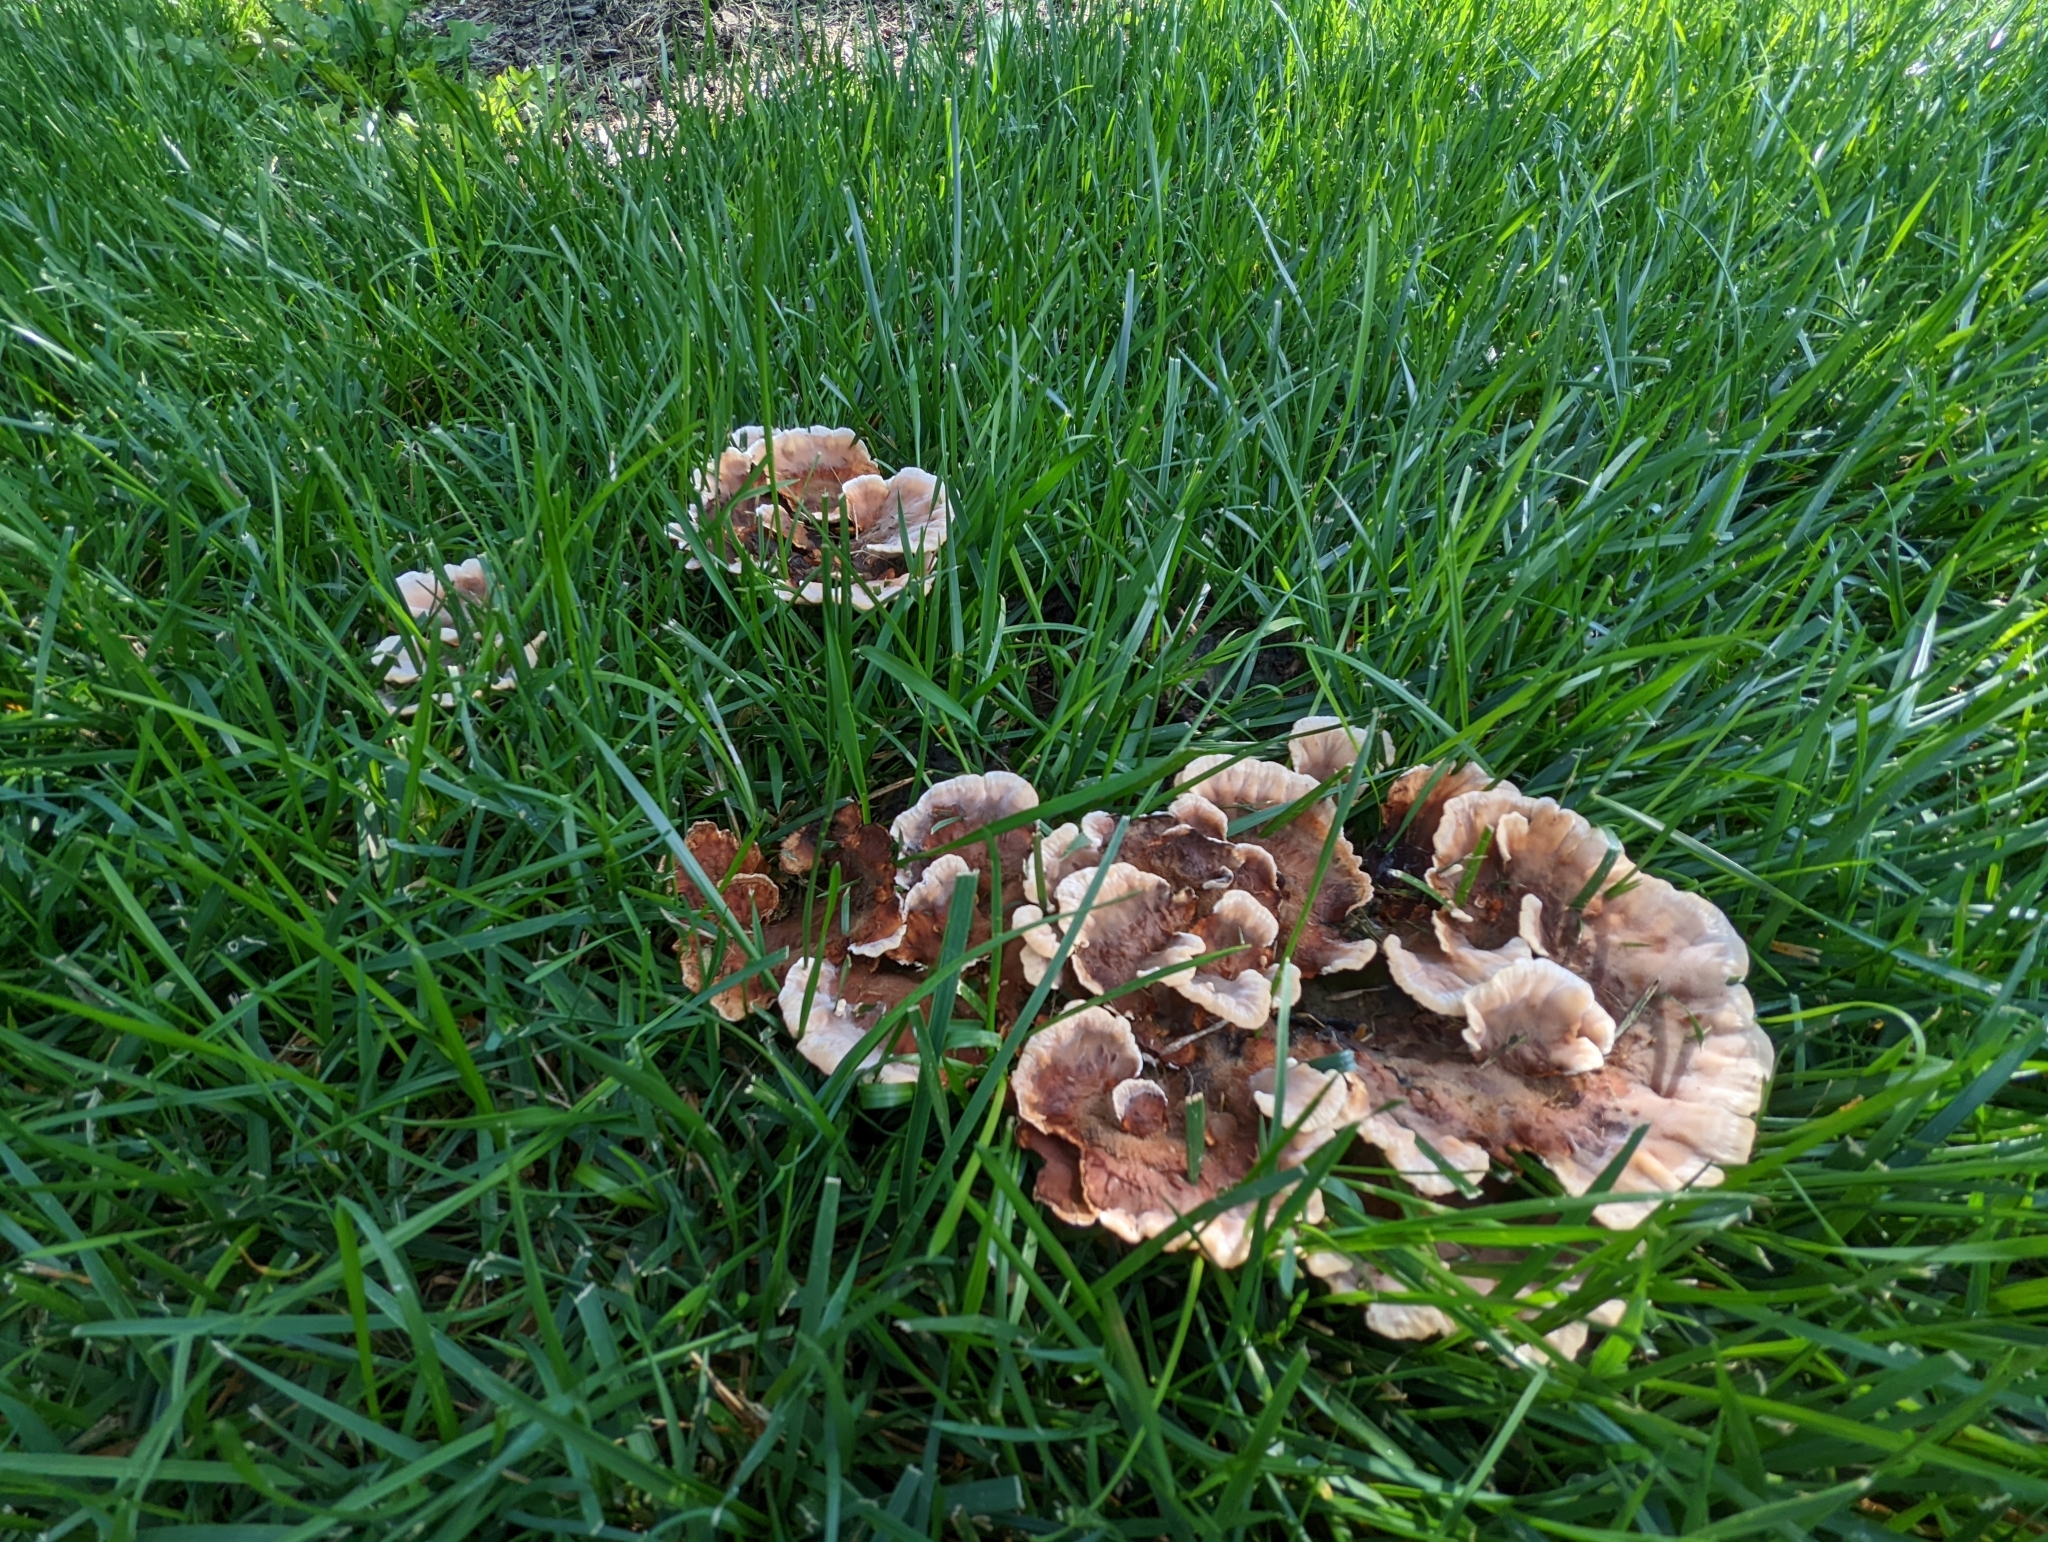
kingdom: Fungi
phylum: Basidiomycota
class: Agaricomycetes
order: Polyporales
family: Podoscyphaceae
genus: Abortiporus
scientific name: Abortiporus biennis
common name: Blushing rosette
